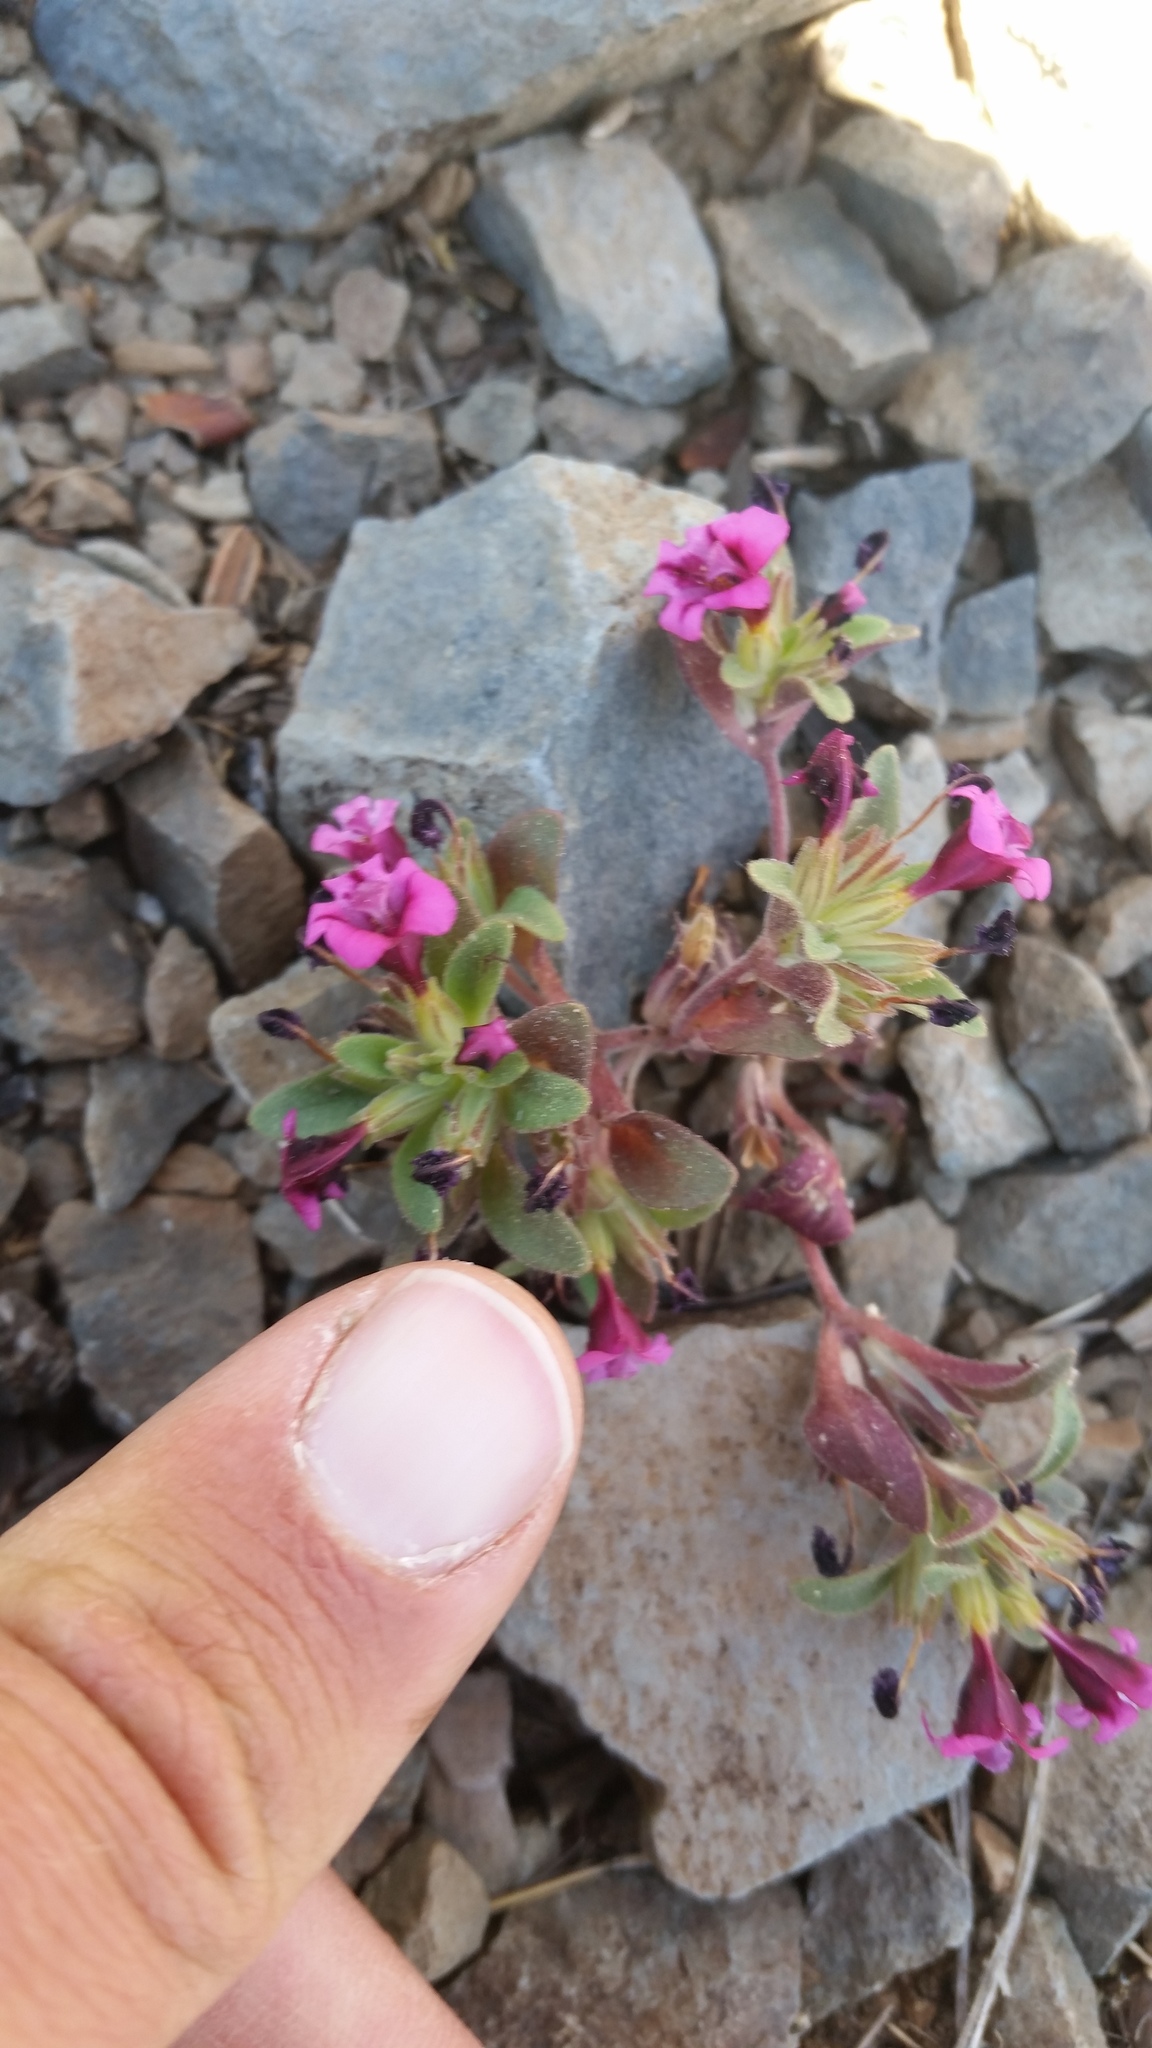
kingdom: Plantae
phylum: Tracheophyta
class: Magnoliopsida
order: Lamiales
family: Phrymaceae
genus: Diplacus
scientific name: Diplacus nanus
